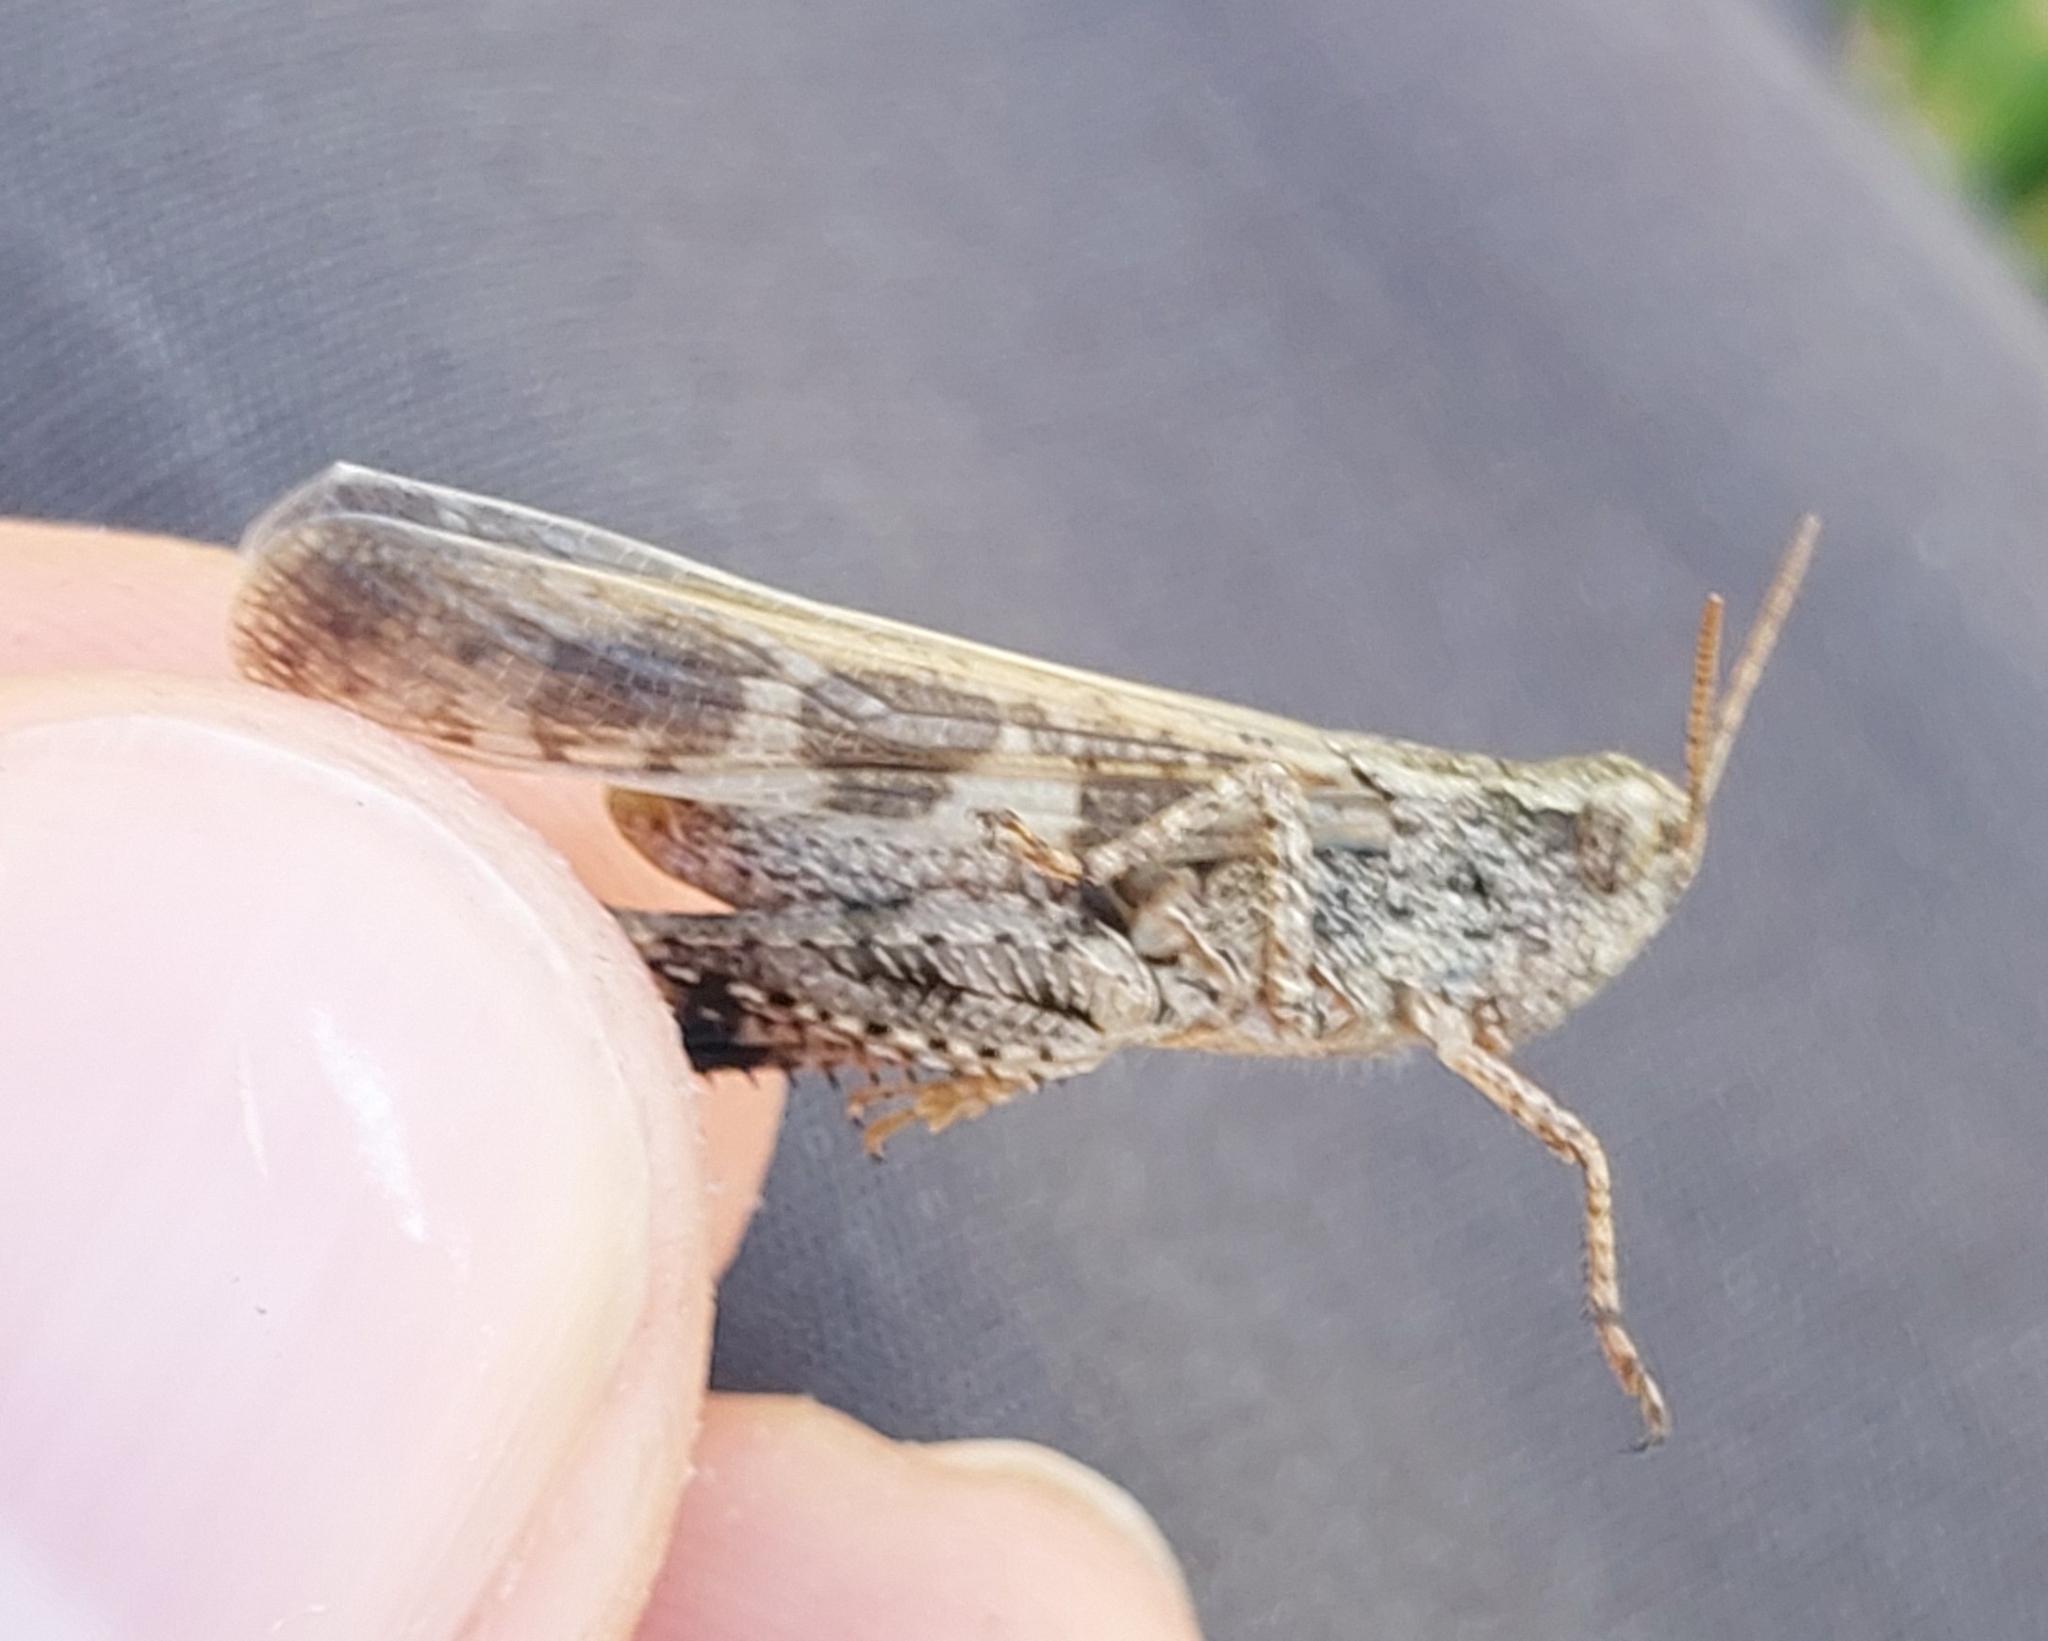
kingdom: Animalia
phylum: Arthropoda
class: Insecta
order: Orthoptera
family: Acrididae
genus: Aiolopus
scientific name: Aiolopus strepens
